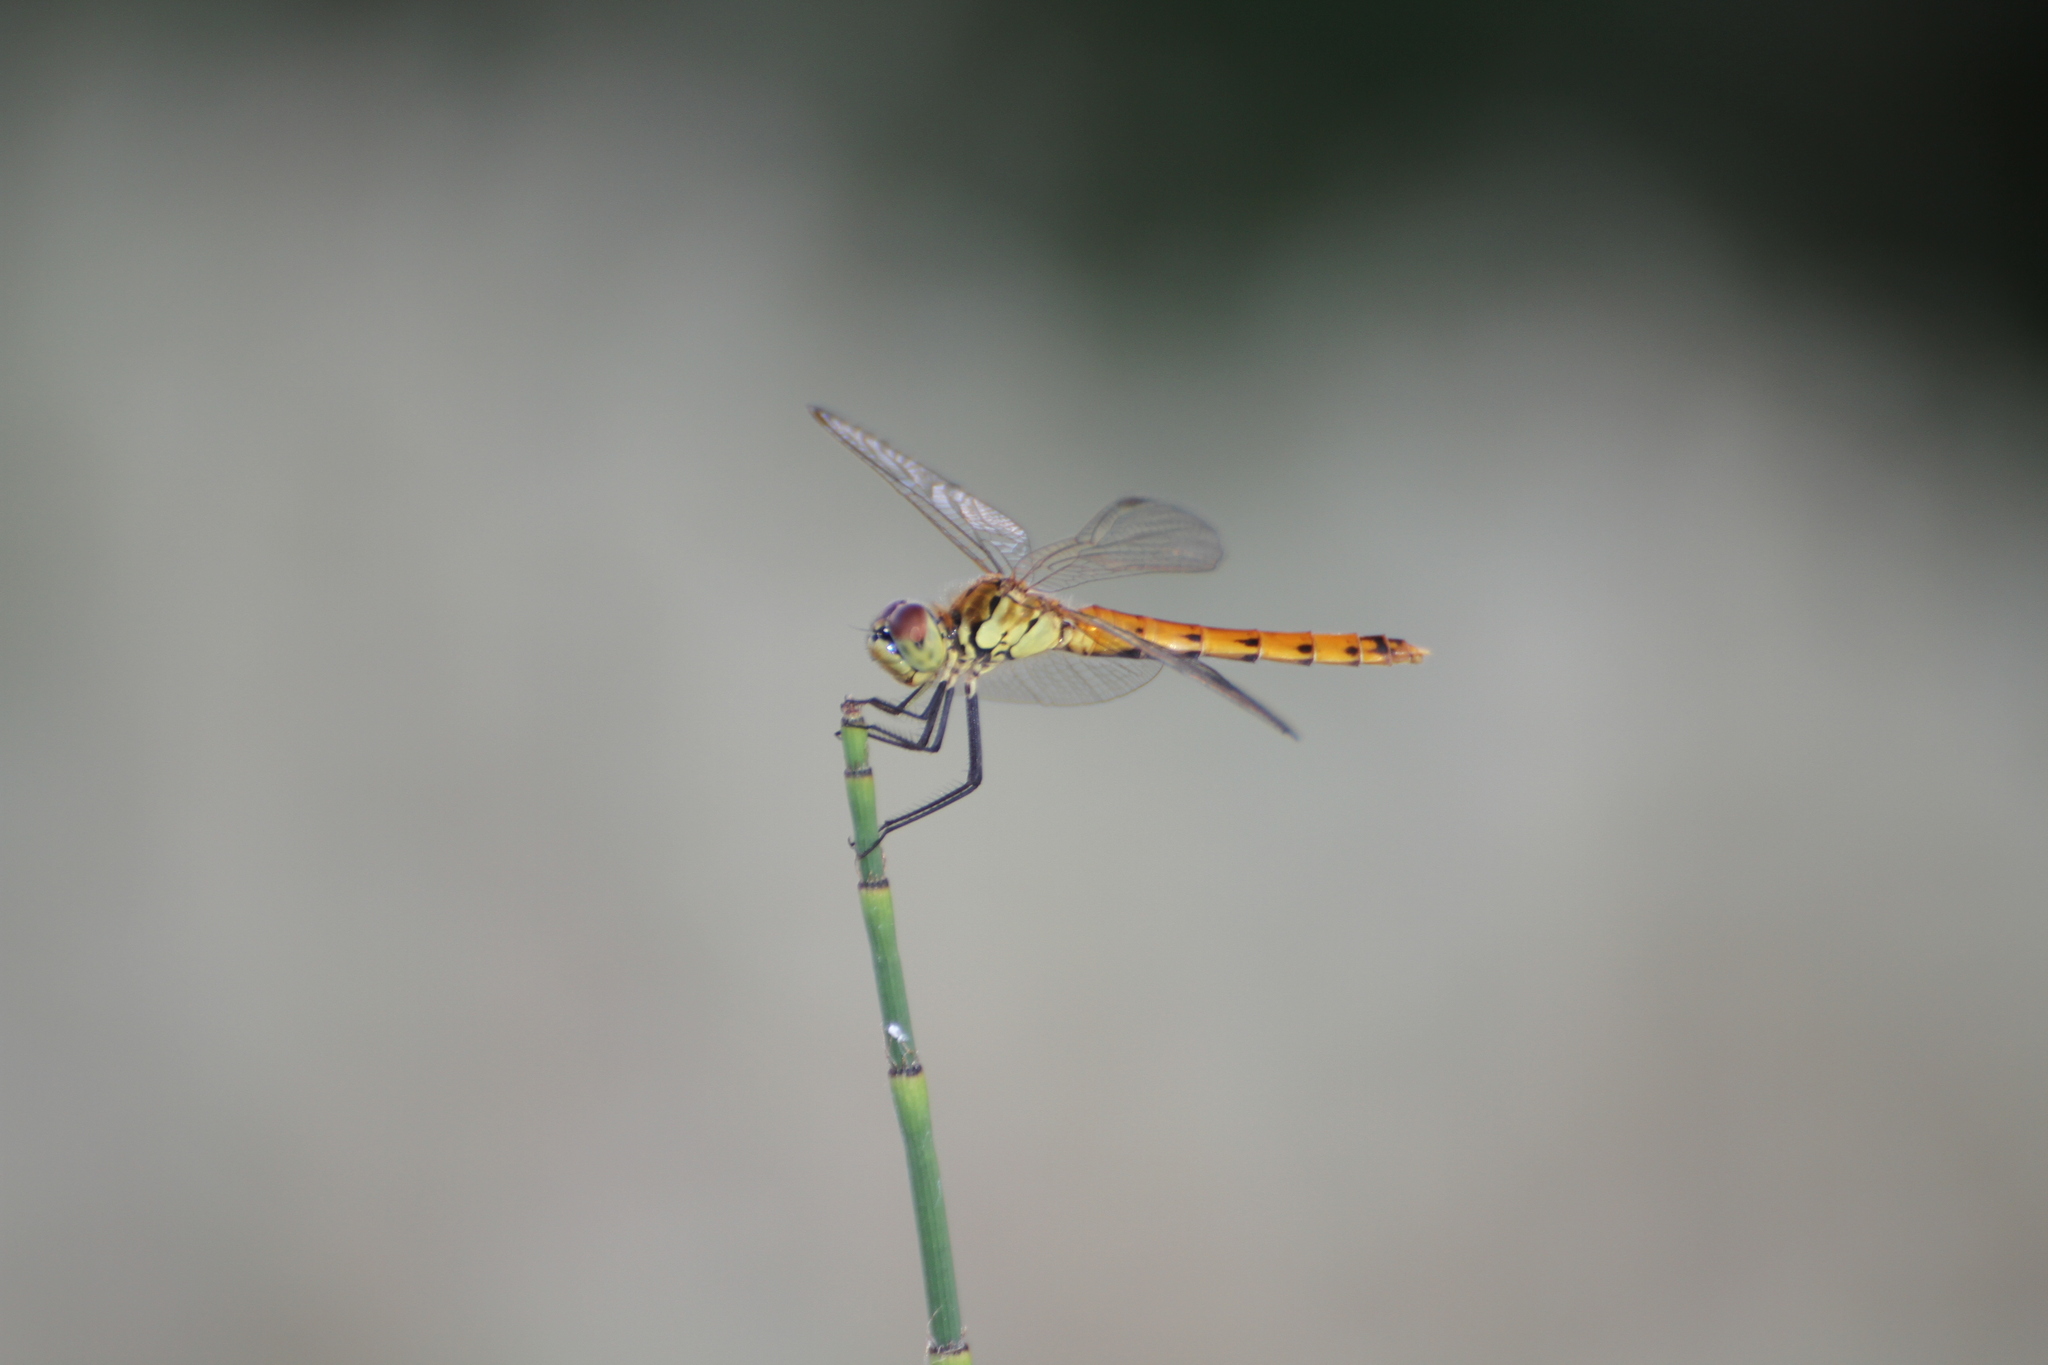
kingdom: Animalia
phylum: Arthropoda
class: Insecta
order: Odonata
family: Libellulidae
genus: Sympetrum
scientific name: Sympetrum depressiusculum
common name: Spotted darter
